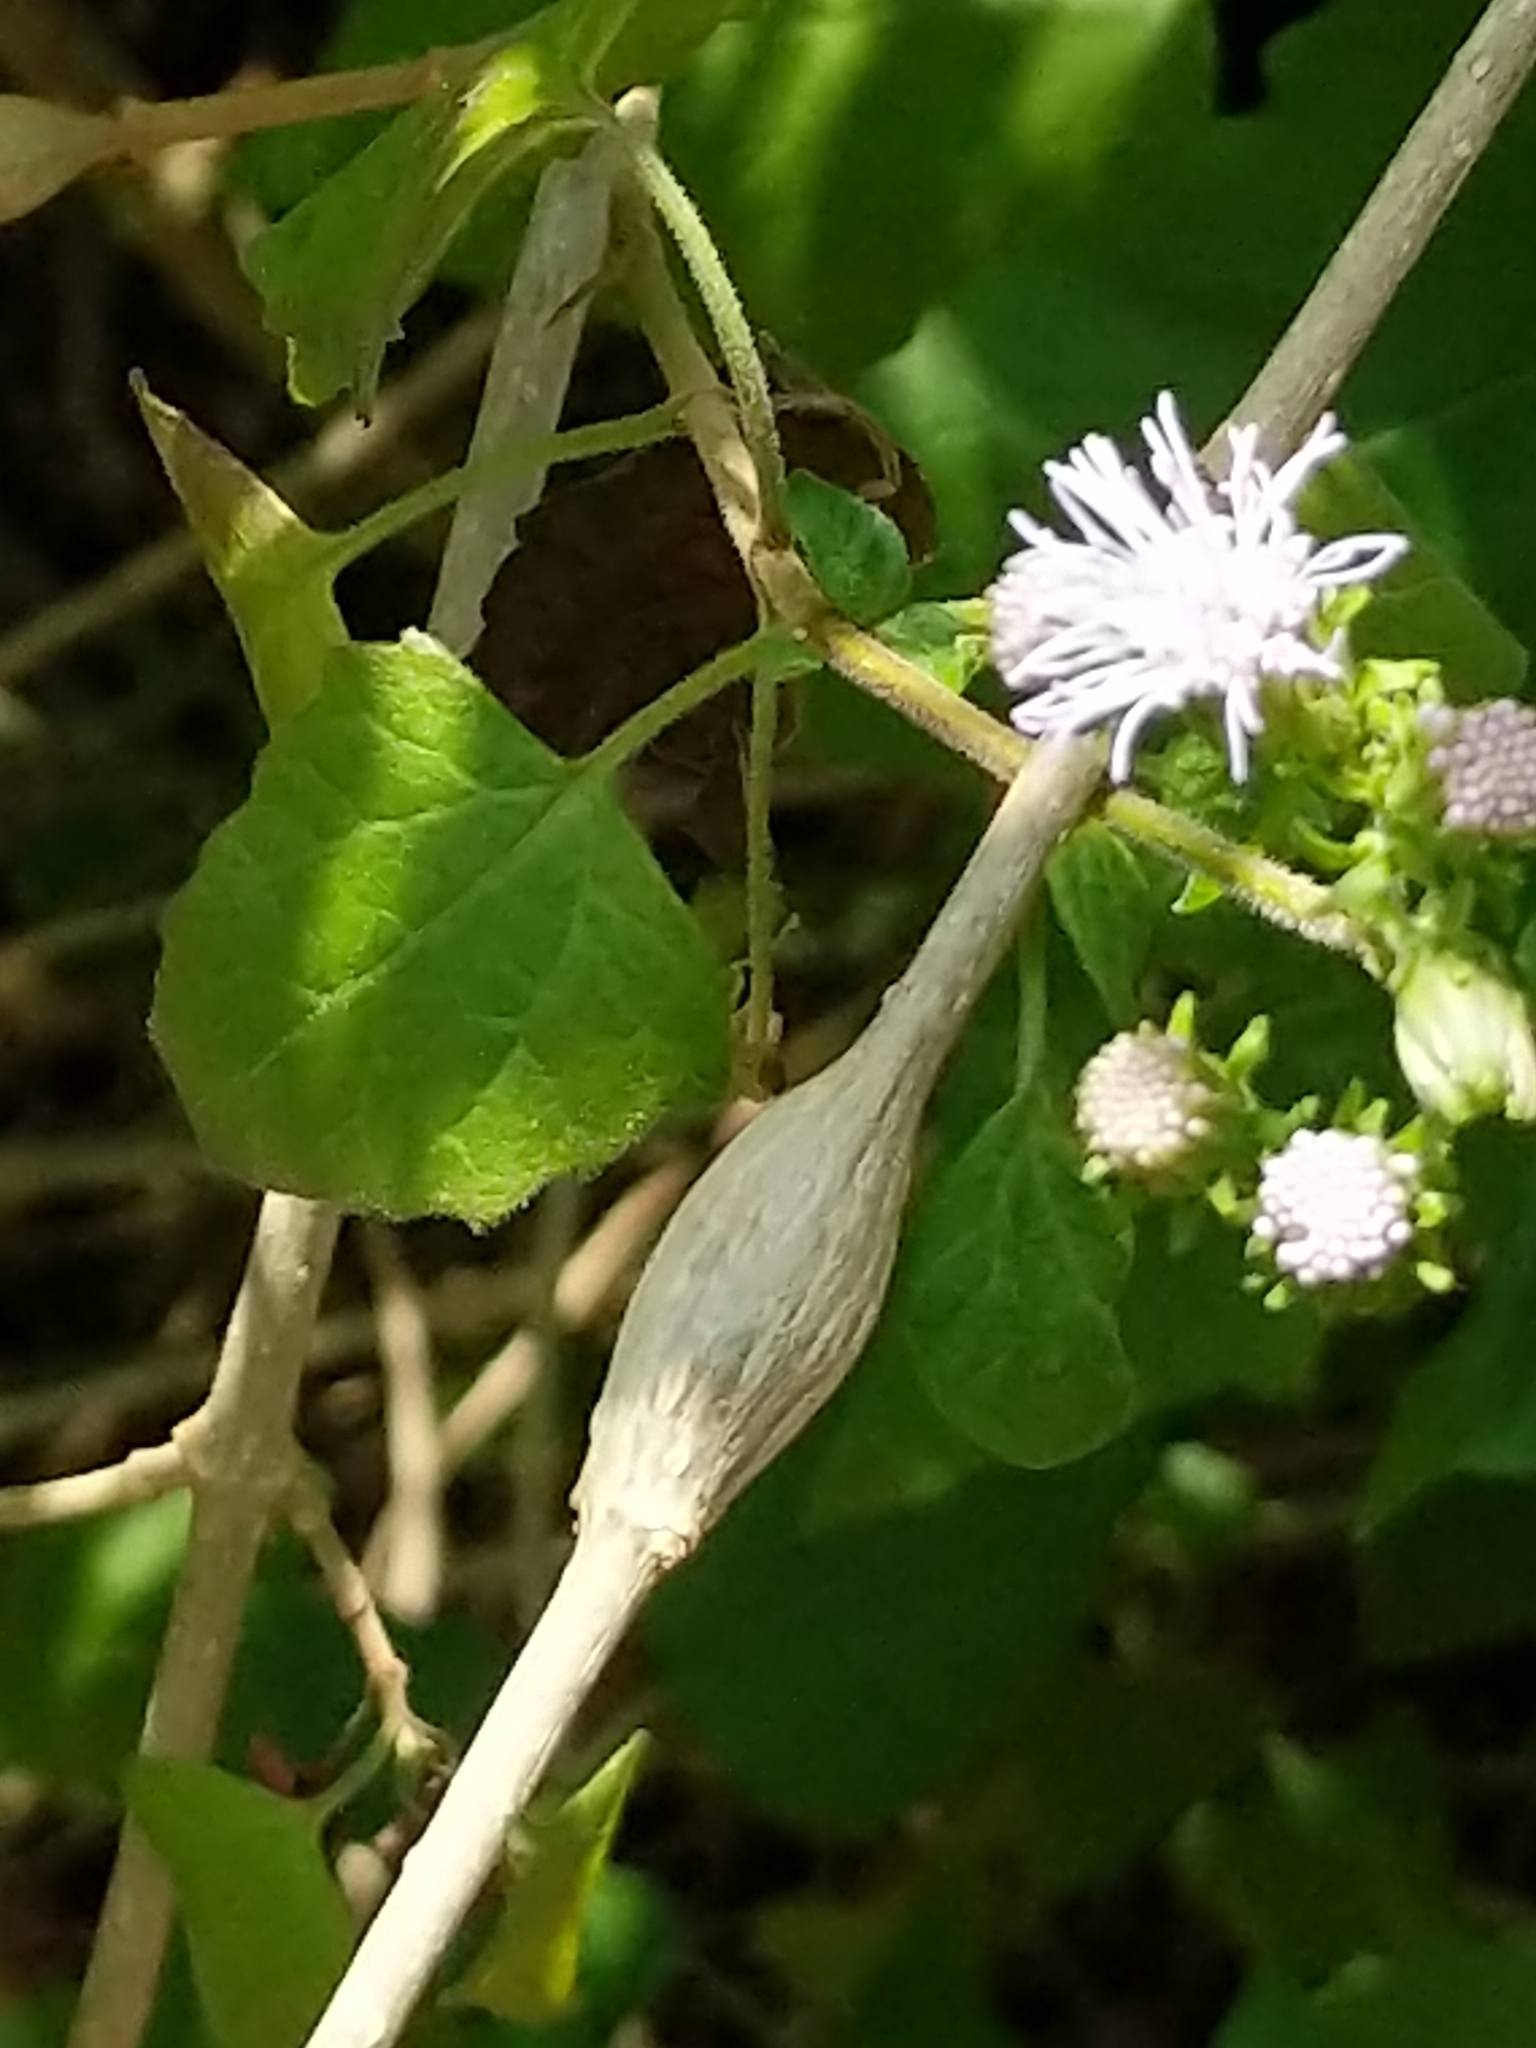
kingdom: Plantae
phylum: Tracheophyta
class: Magnoliopsida
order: Asterales
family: Asteraceae
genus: Tamaulipa
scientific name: Tamaulipa azurea
